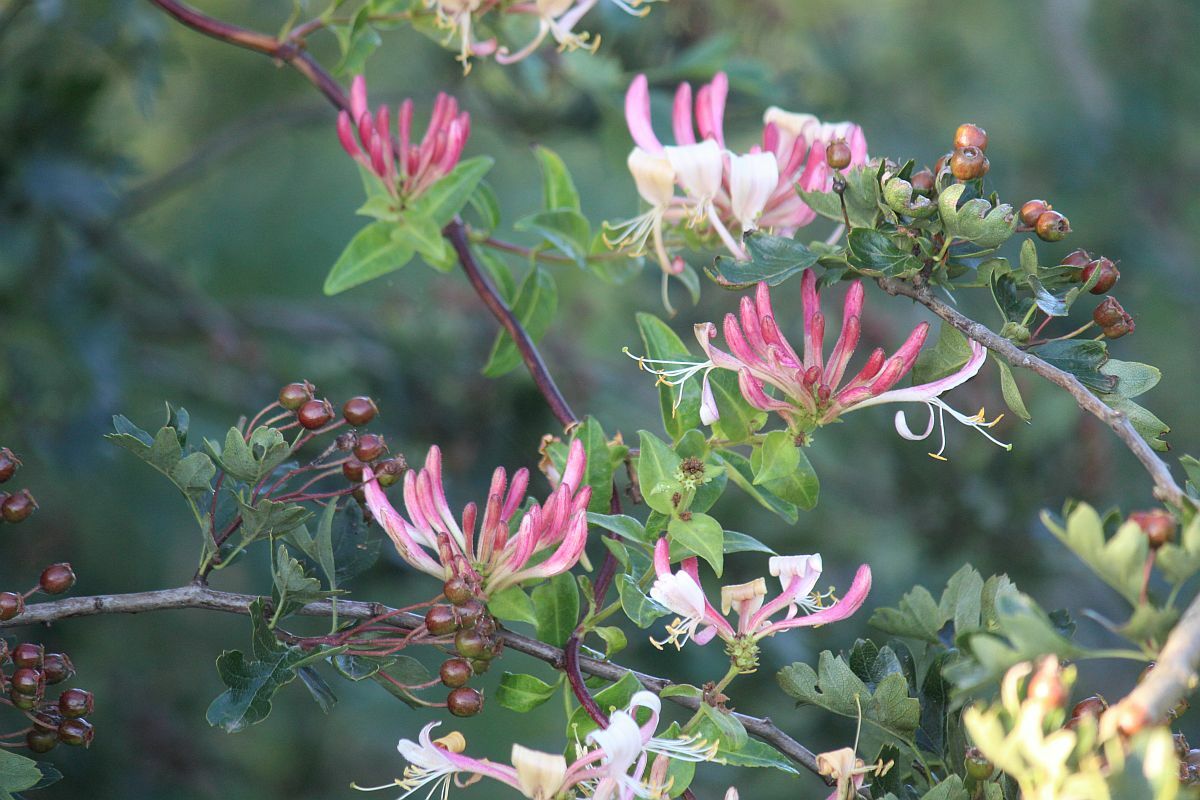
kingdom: Plantae
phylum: Tracheophyta
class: Magnoliopsida
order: Dipsacales
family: Caprifoliaceae
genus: Lonicera
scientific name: Lonicera periclymenum
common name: European honeysuckle
